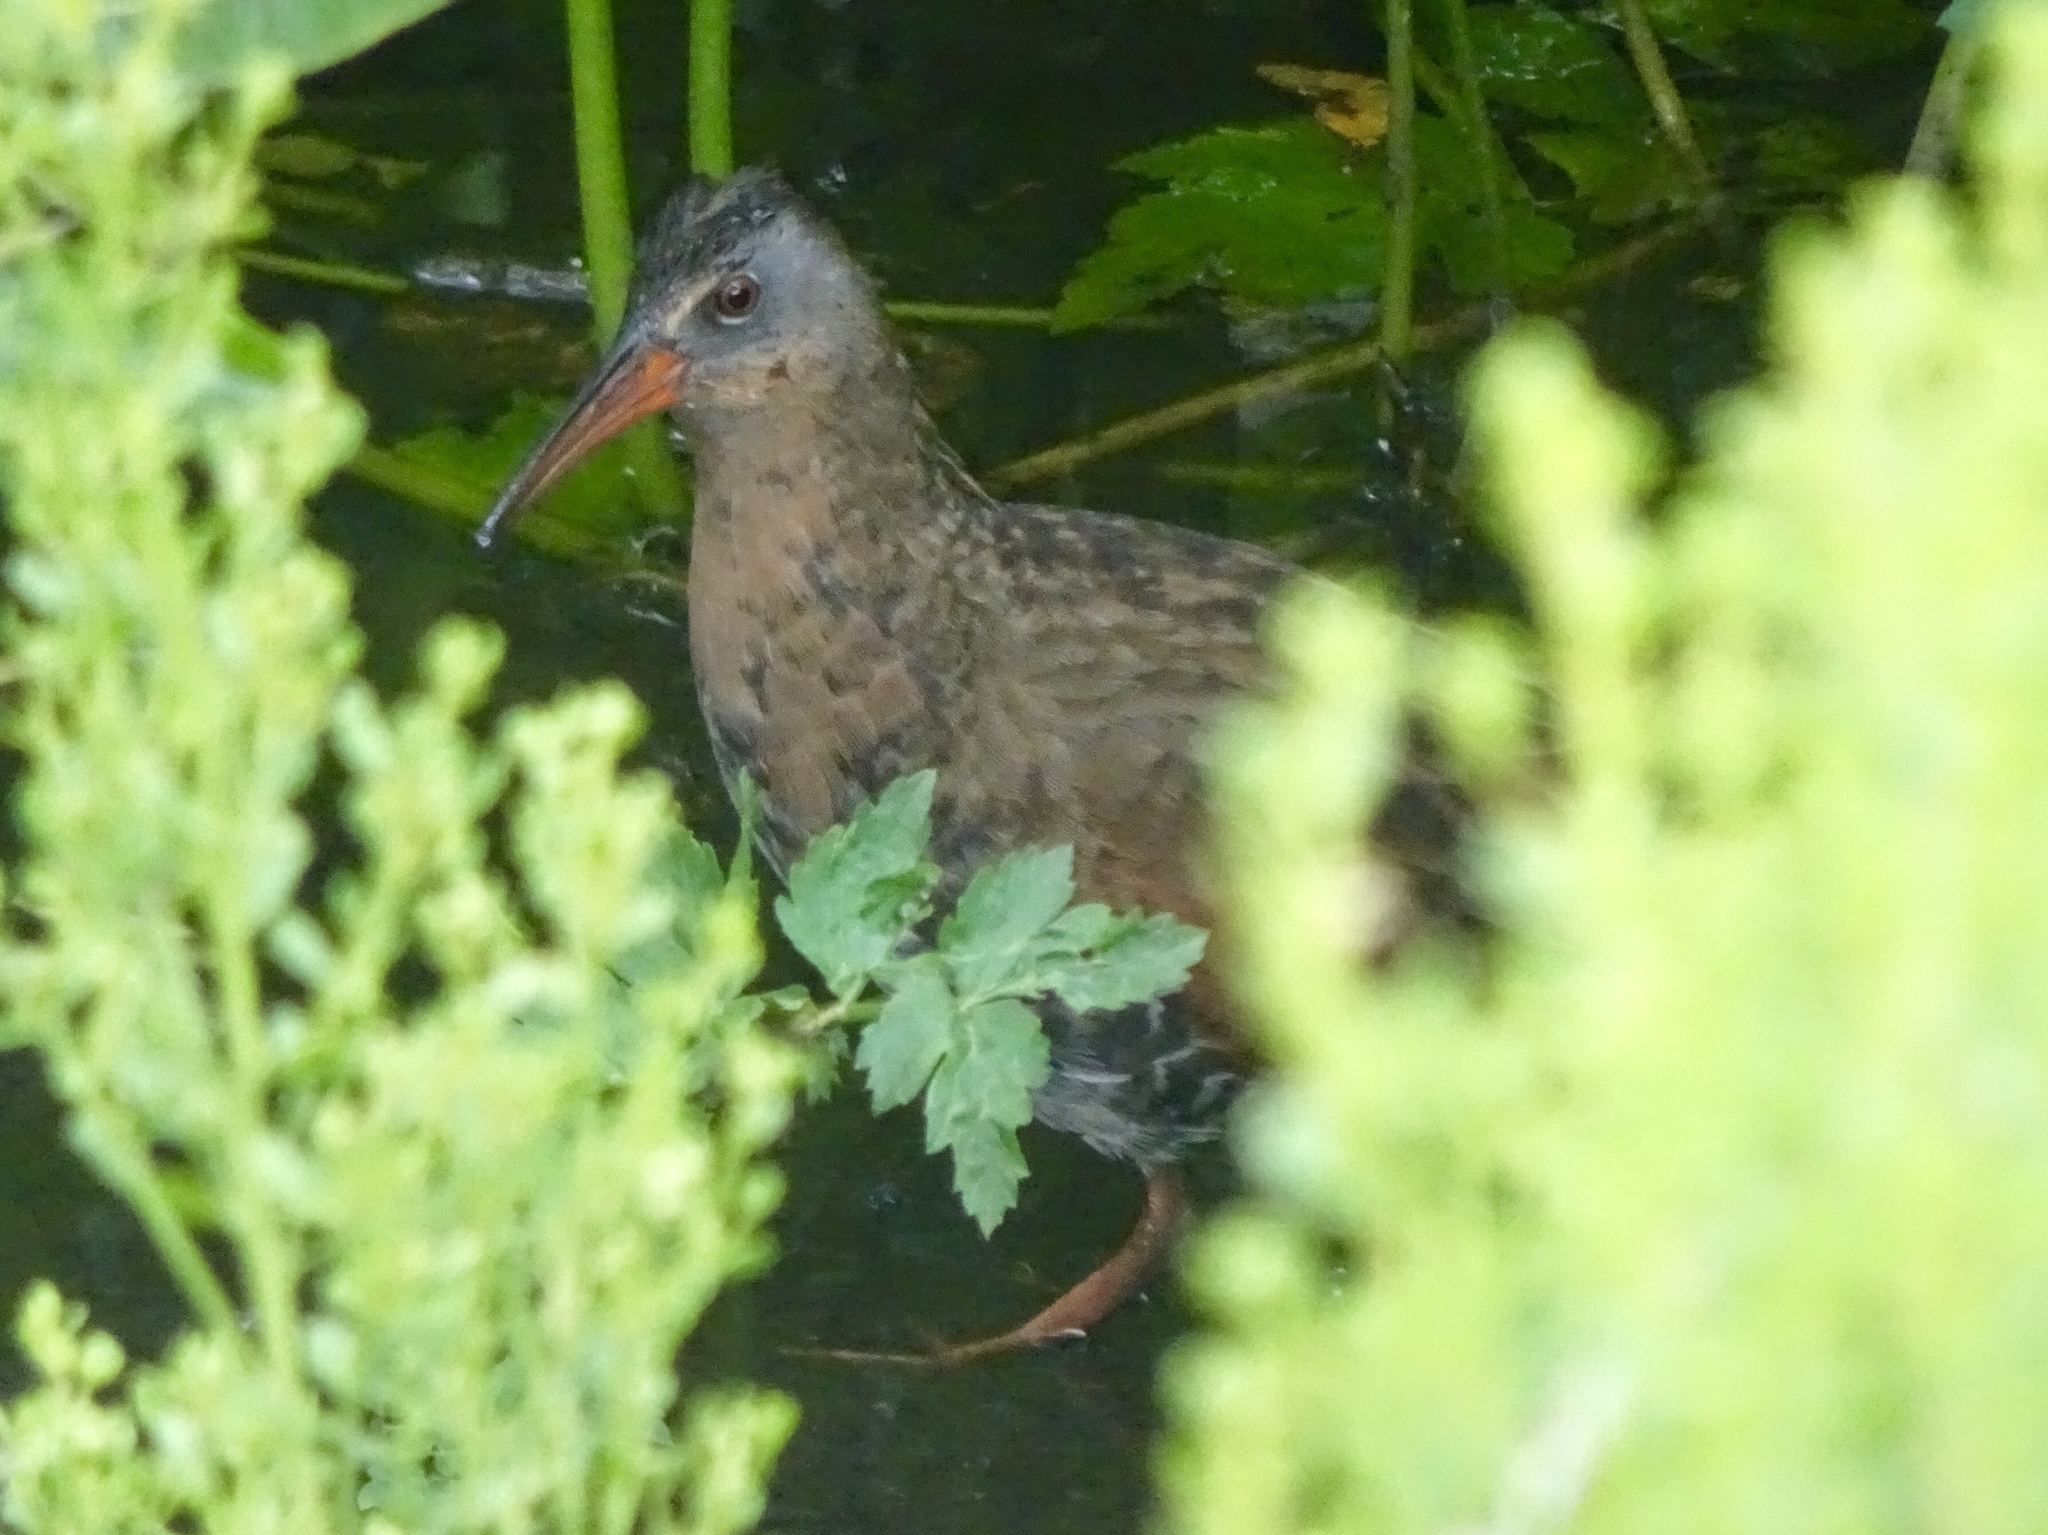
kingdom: Animalia
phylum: Chordata
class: Aves
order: Gruiformes
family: Rallidae
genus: Rallus
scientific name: Rallus limicola
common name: Virginia rail
